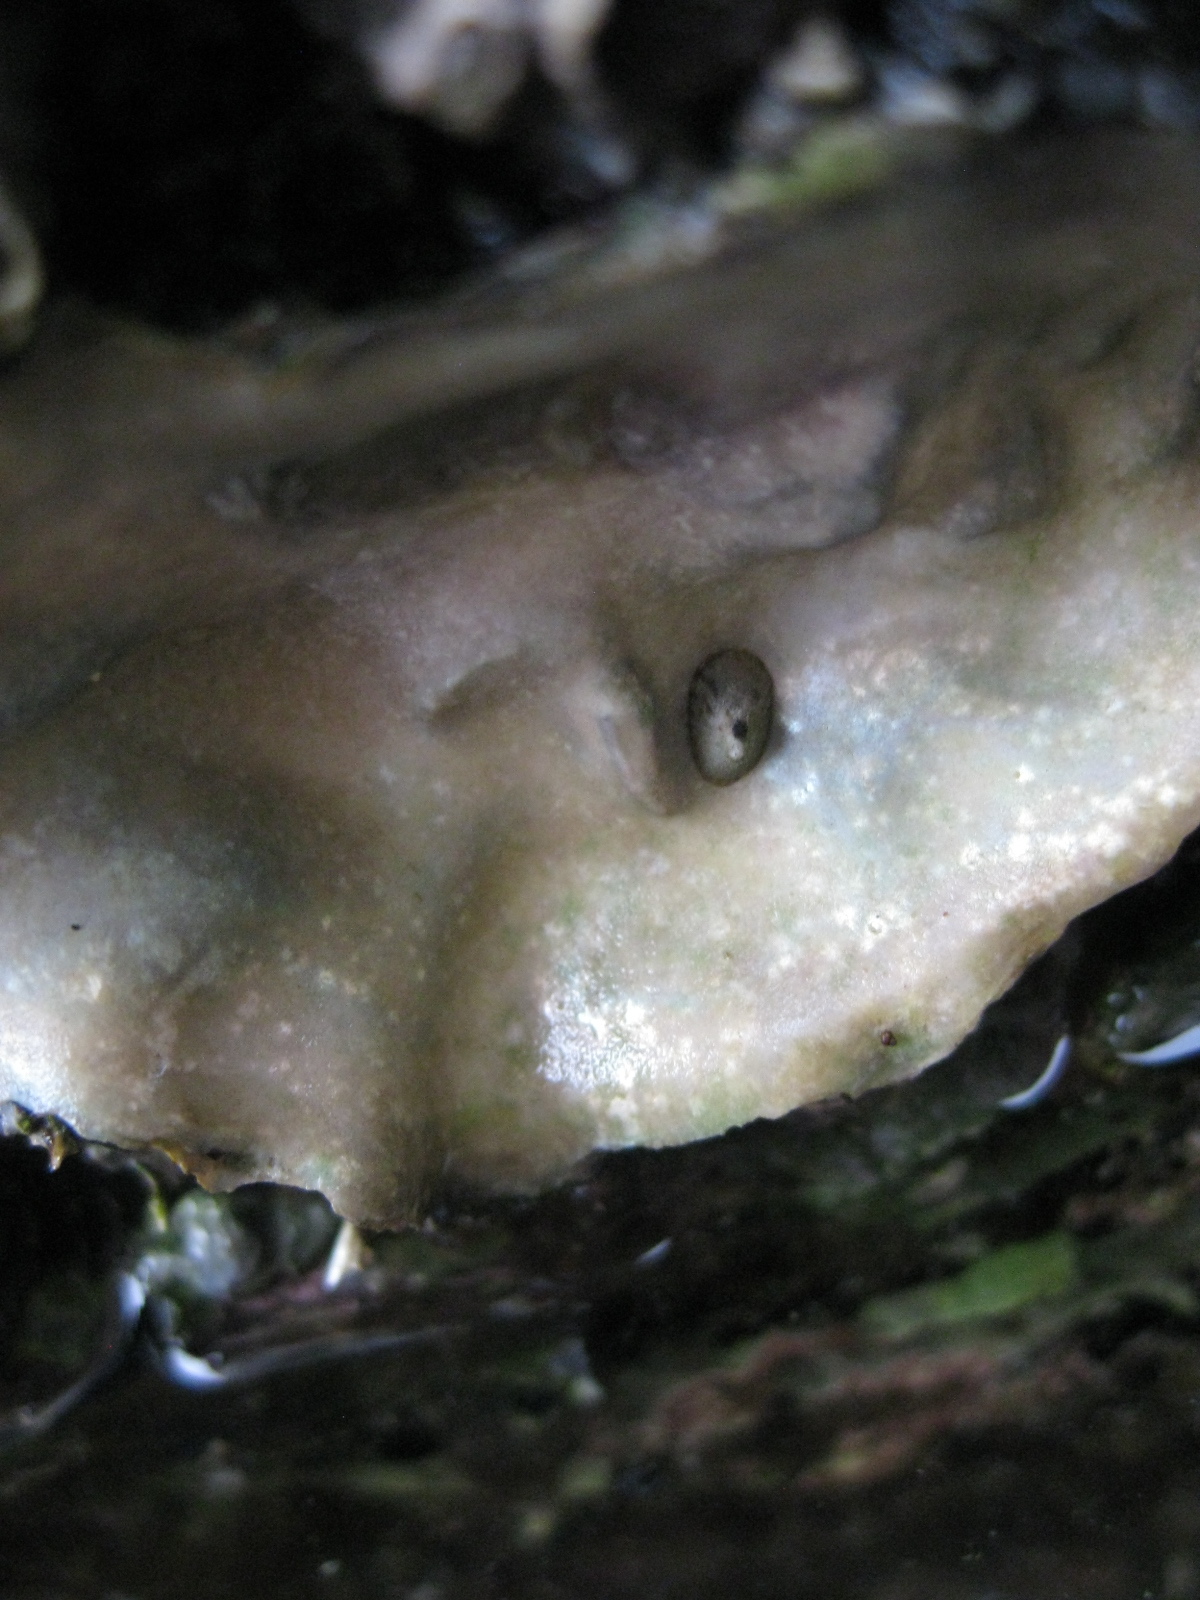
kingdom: Animalia
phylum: Mollusca
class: Gastropoda
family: Lottiidae
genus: Notoacmea
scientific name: Notoacmea parviconoidea
